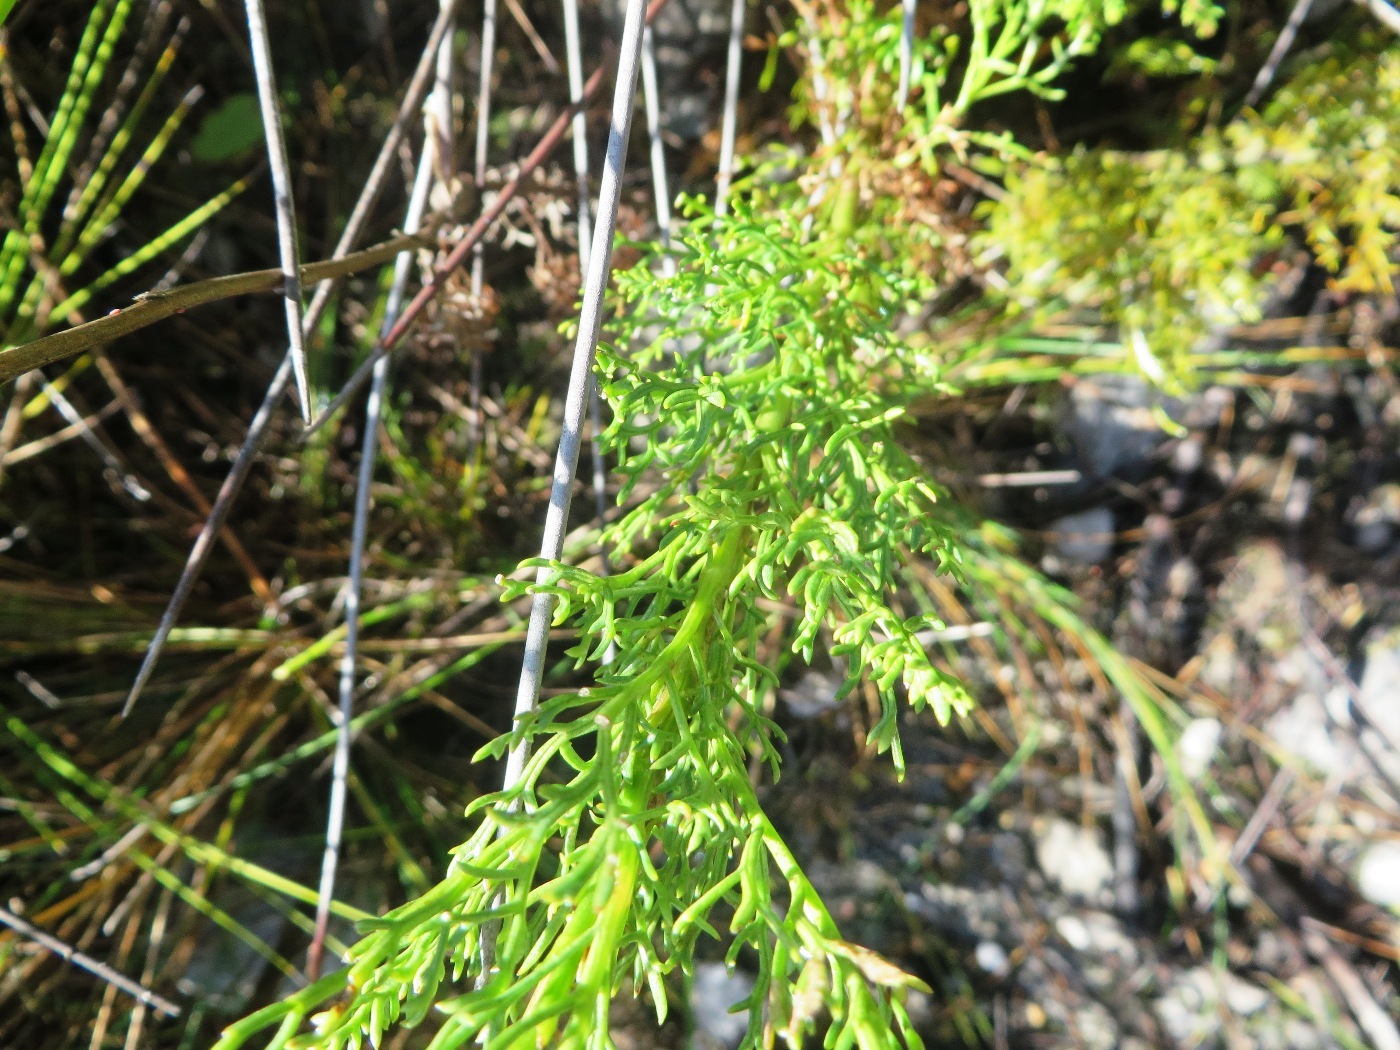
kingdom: Plantae
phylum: Tracheophyta
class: Magnoliopsida
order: Asterales
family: Asteraceae
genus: Senecio
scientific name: Senecio bipinnatus
